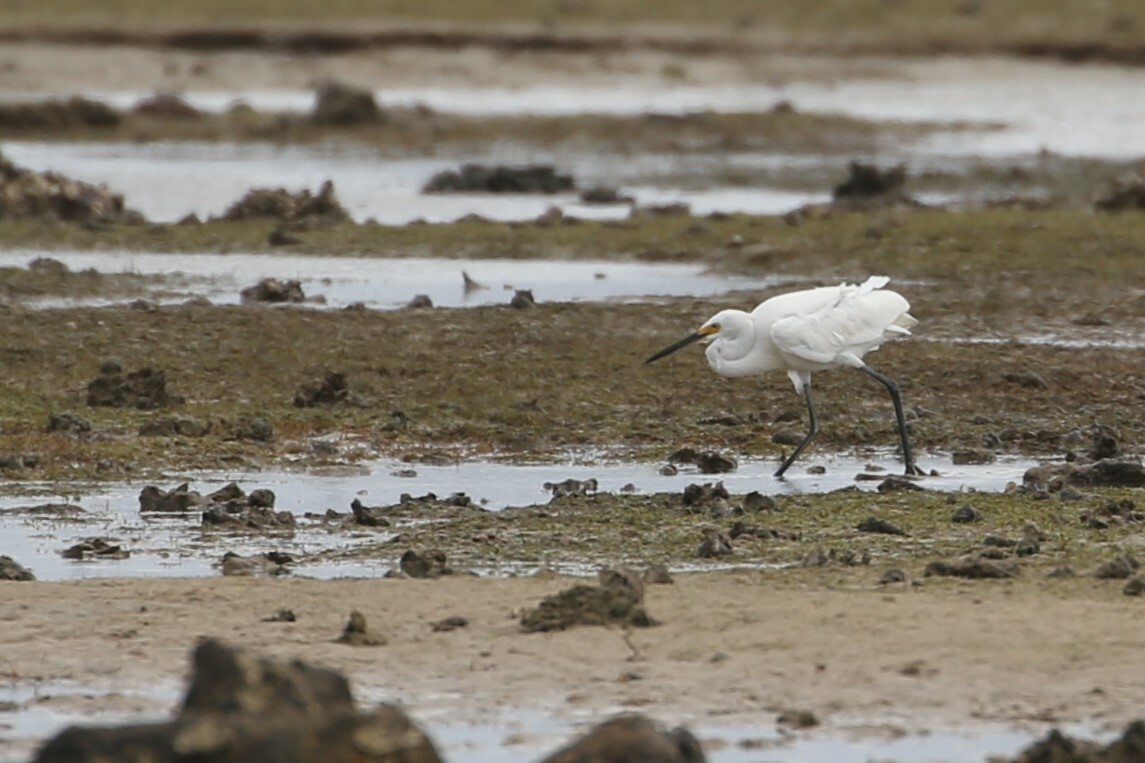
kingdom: Animalia
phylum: Chordata
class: Aves
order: Pelecaniformes
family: Ardeidae
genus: Egretta
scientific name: Egretta garzetta
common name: Little egret
